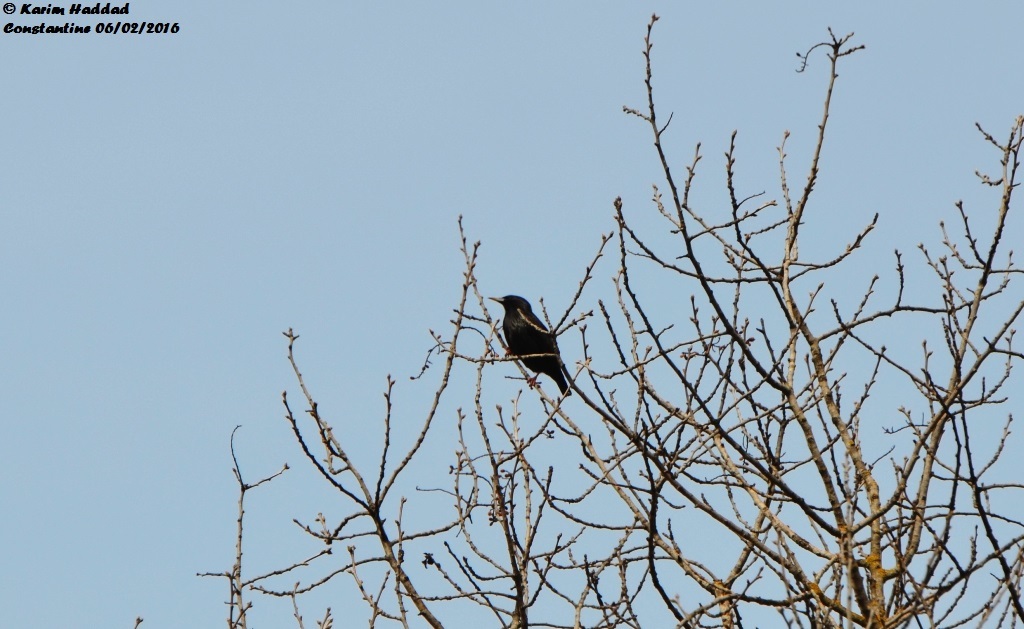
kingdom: Animalia
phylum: Chordata
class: Aves
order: Passeriformes
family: Sturnidae
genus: Sturnus
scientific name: Sturnus unicolor
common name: Spotless starling
